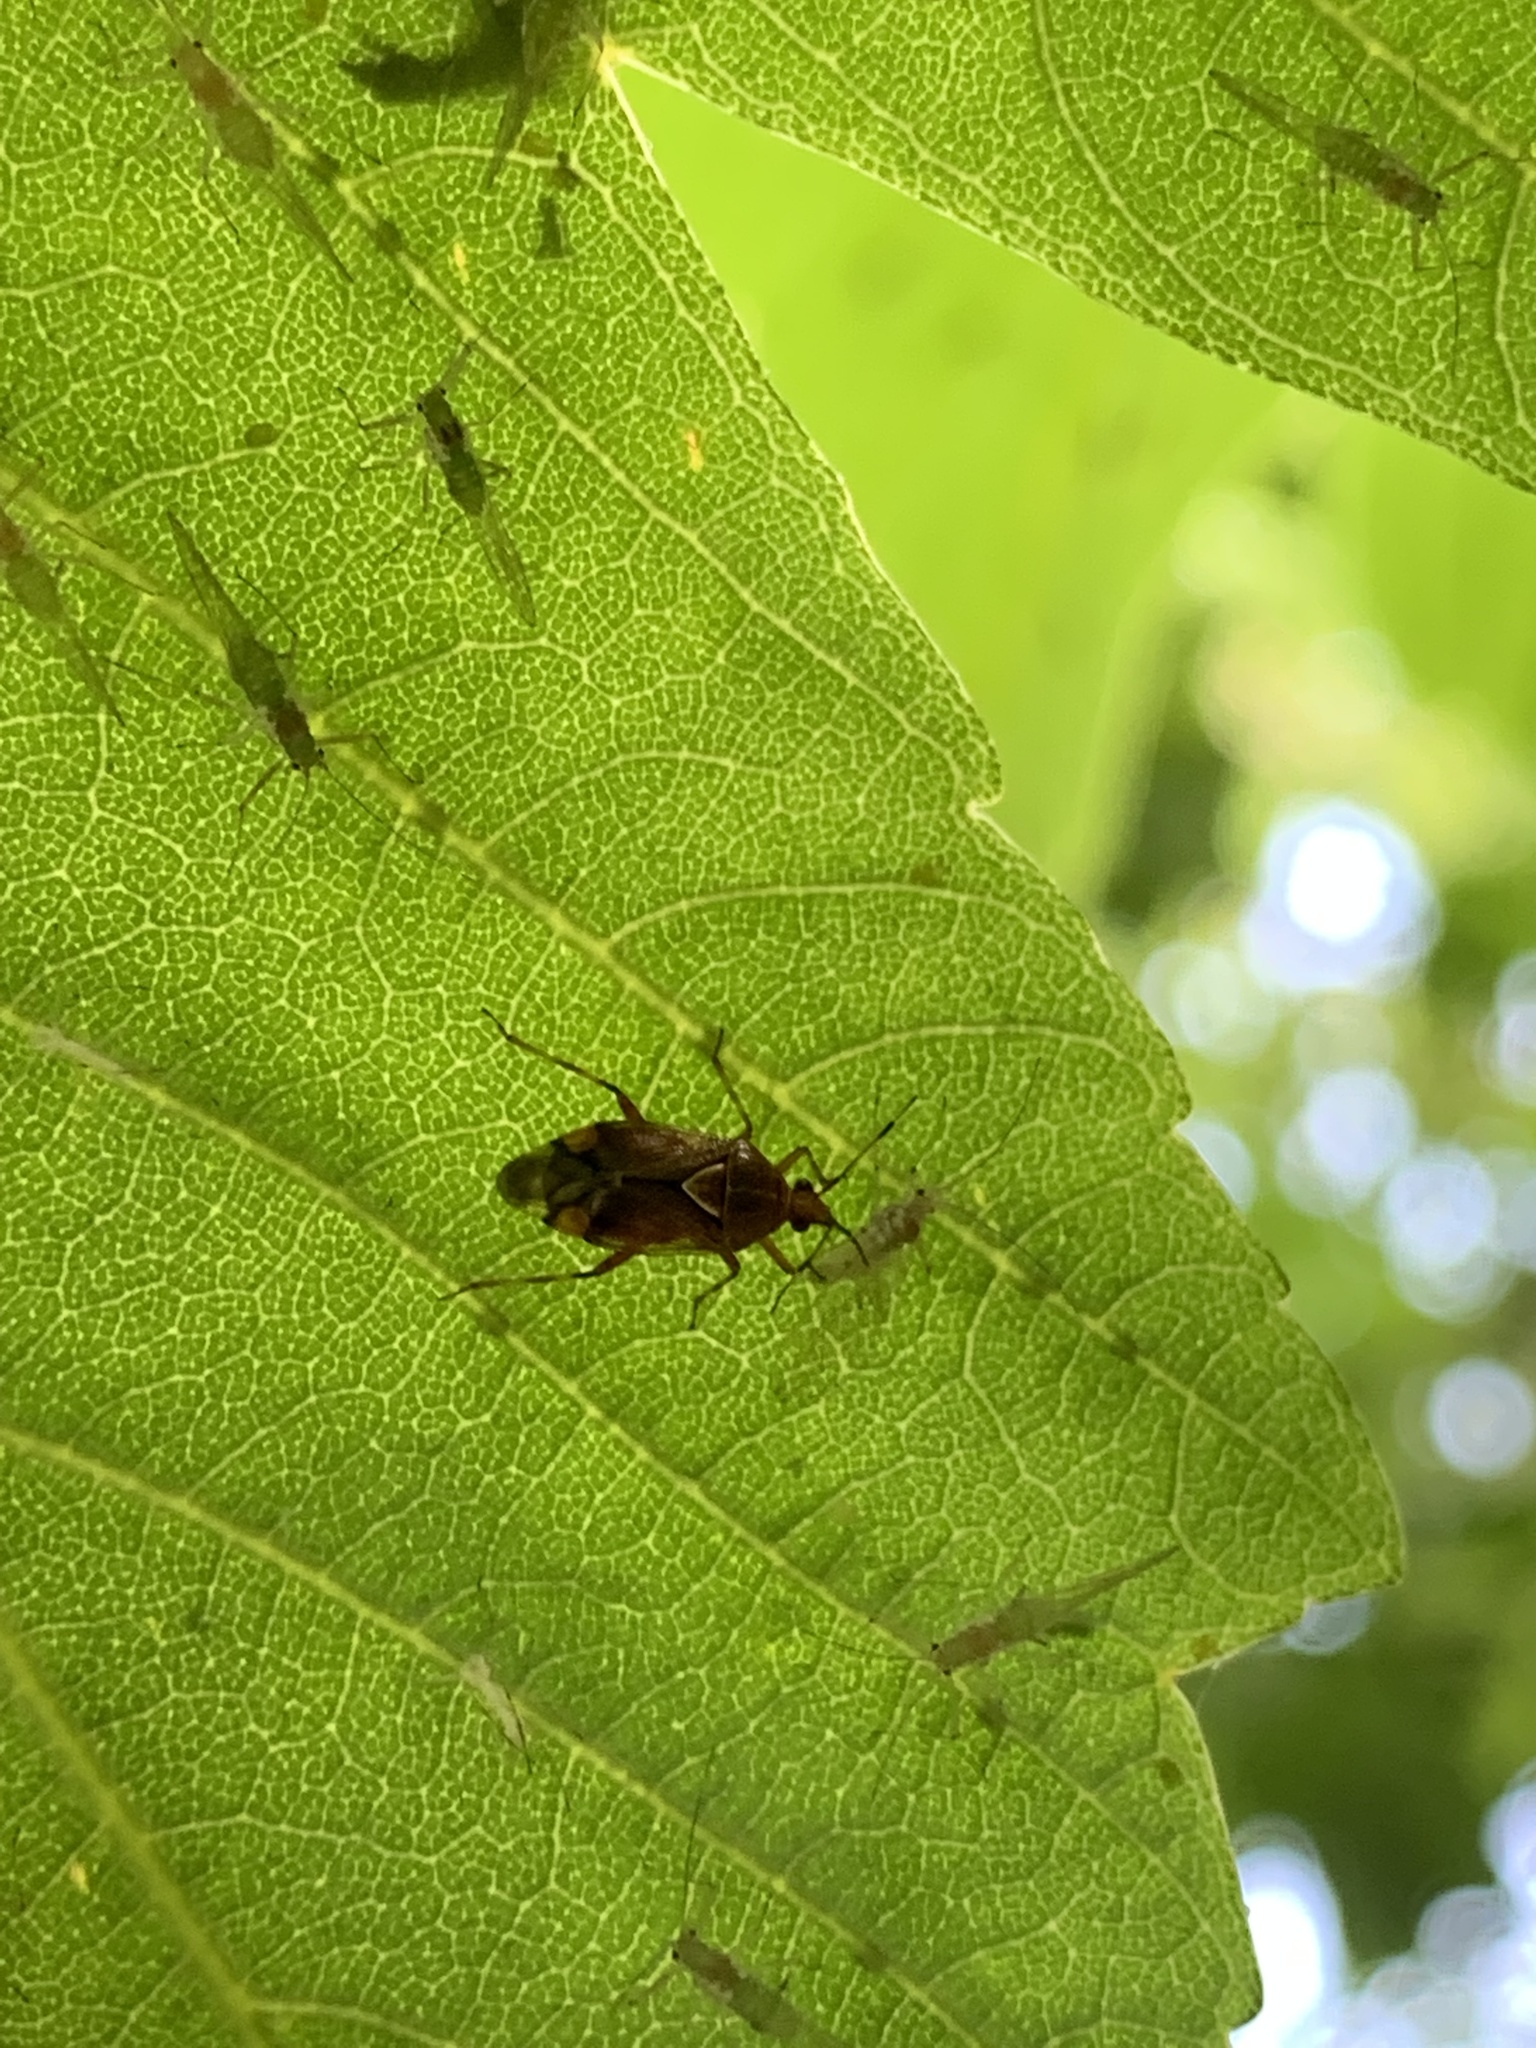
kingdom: Animalia
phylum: Arthropoda
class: Insecta
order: Hemiptera
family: Miridae
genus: Deraeocoris
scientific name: Deraeocoris flavilinea
